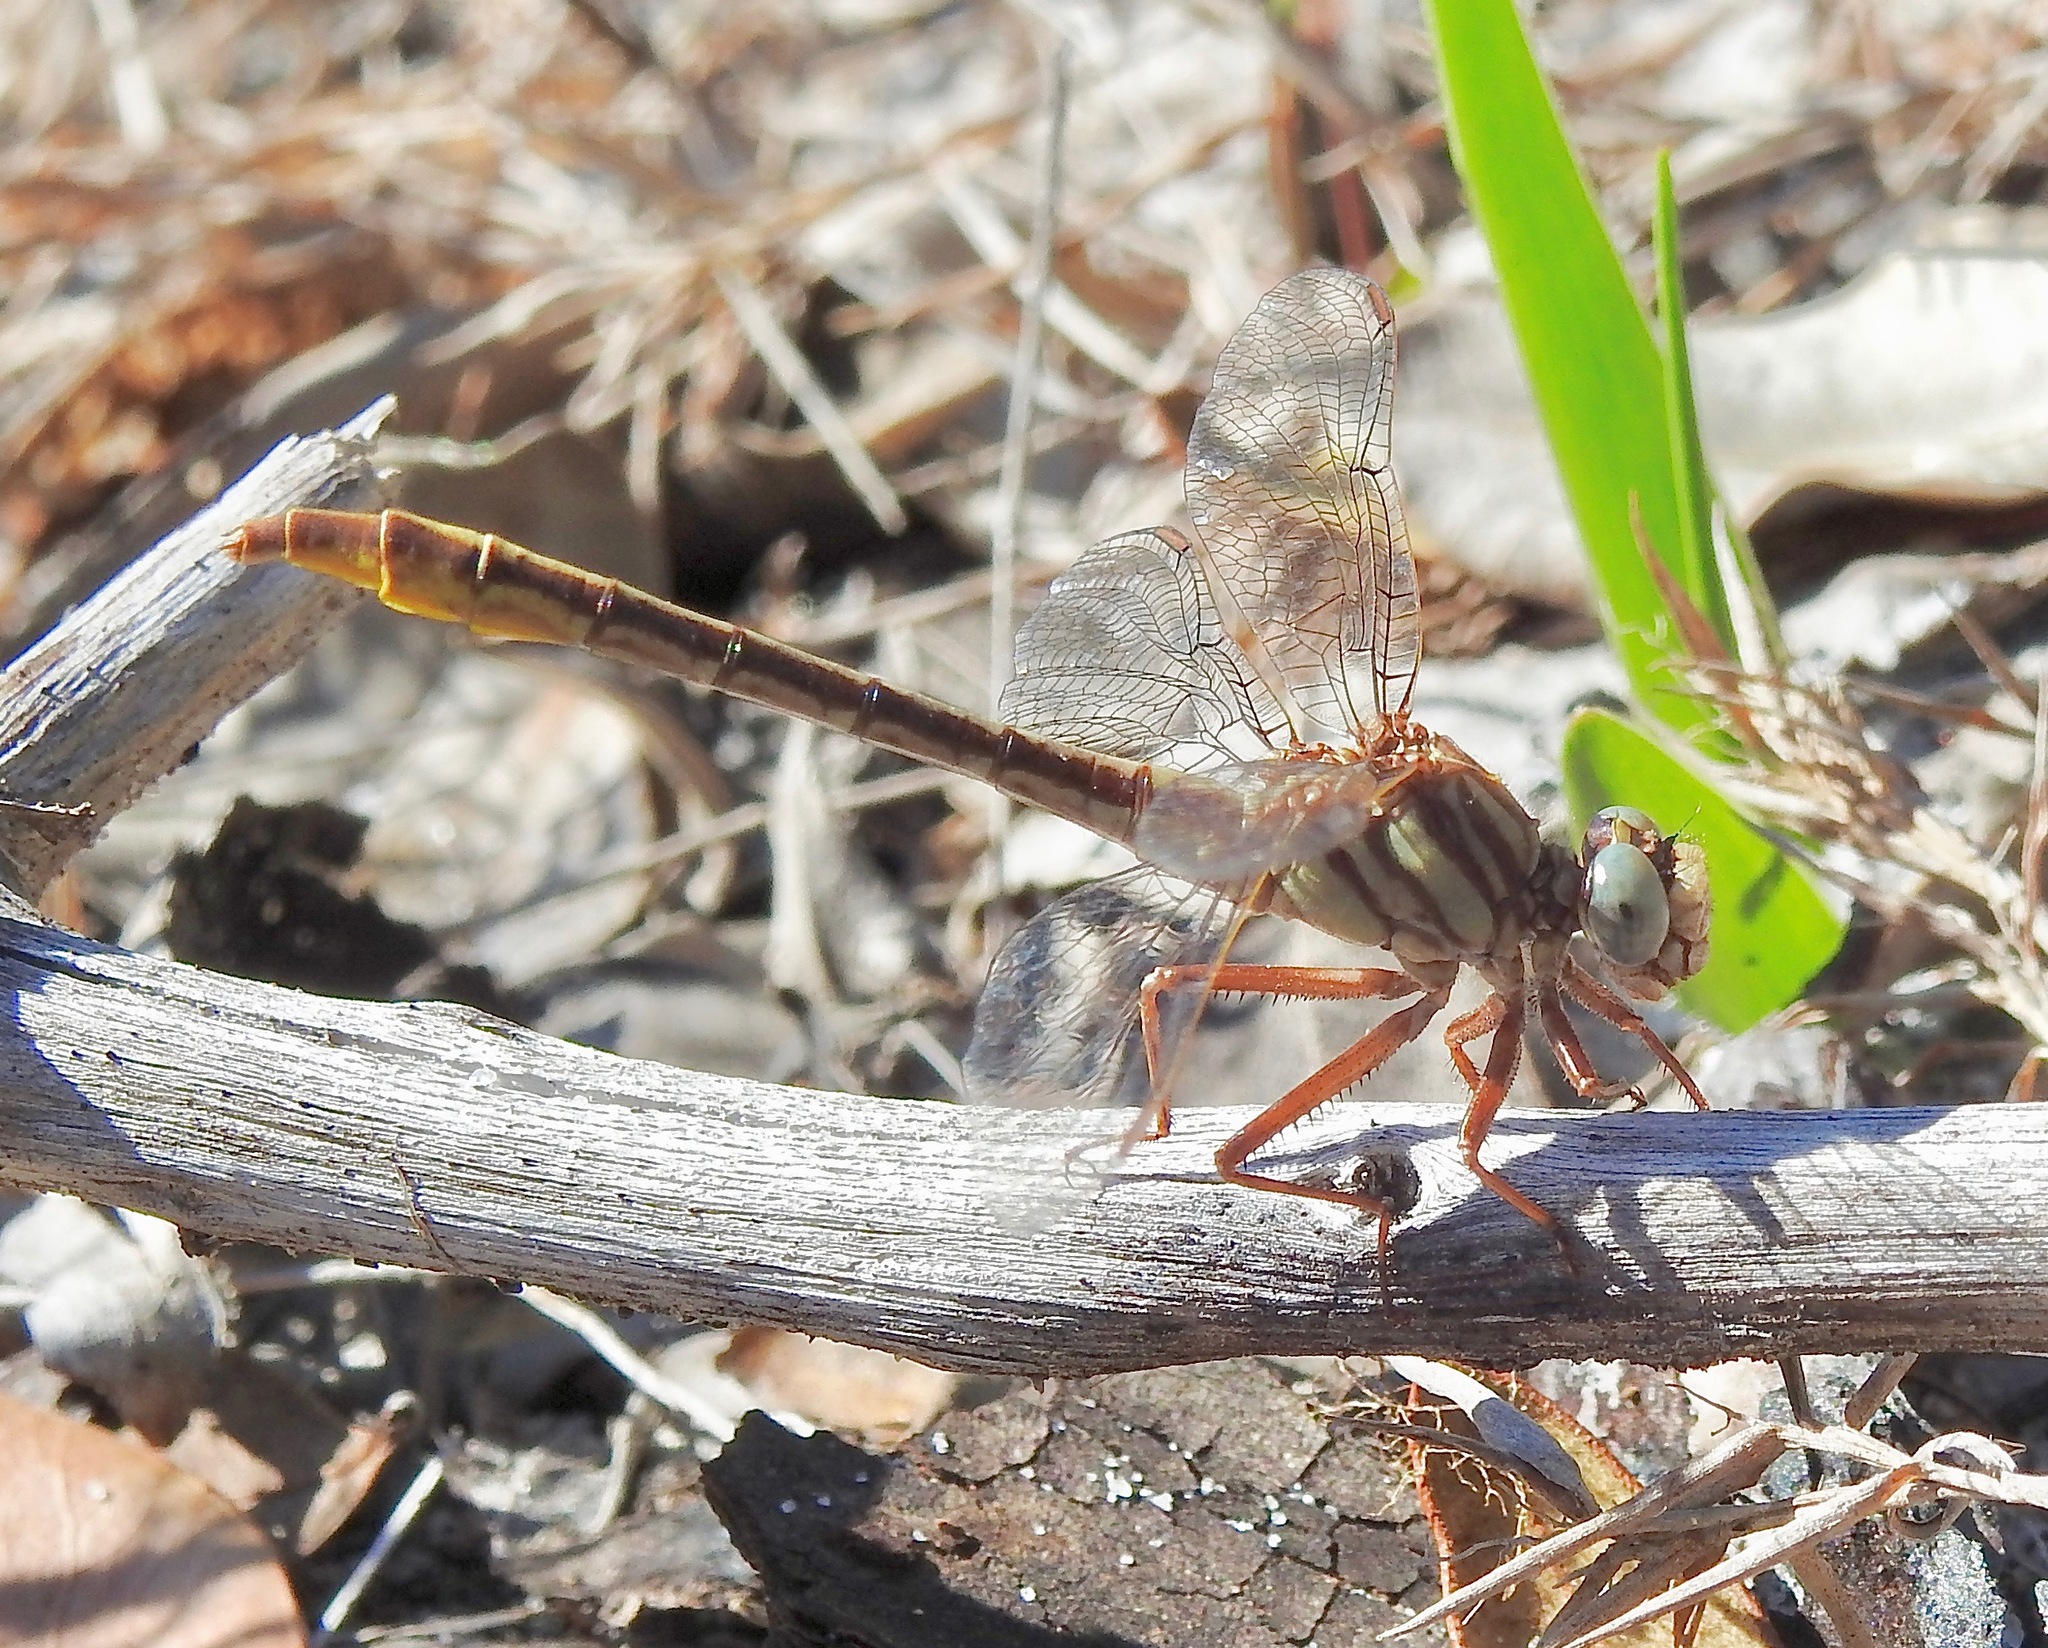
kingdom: Animalia
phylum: Arthropoda
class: Insecta
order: Odonata
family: Gomphidae
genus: Phanogomphus
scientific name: Phanogomphus cavillaris
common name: Sandhill clubtail
